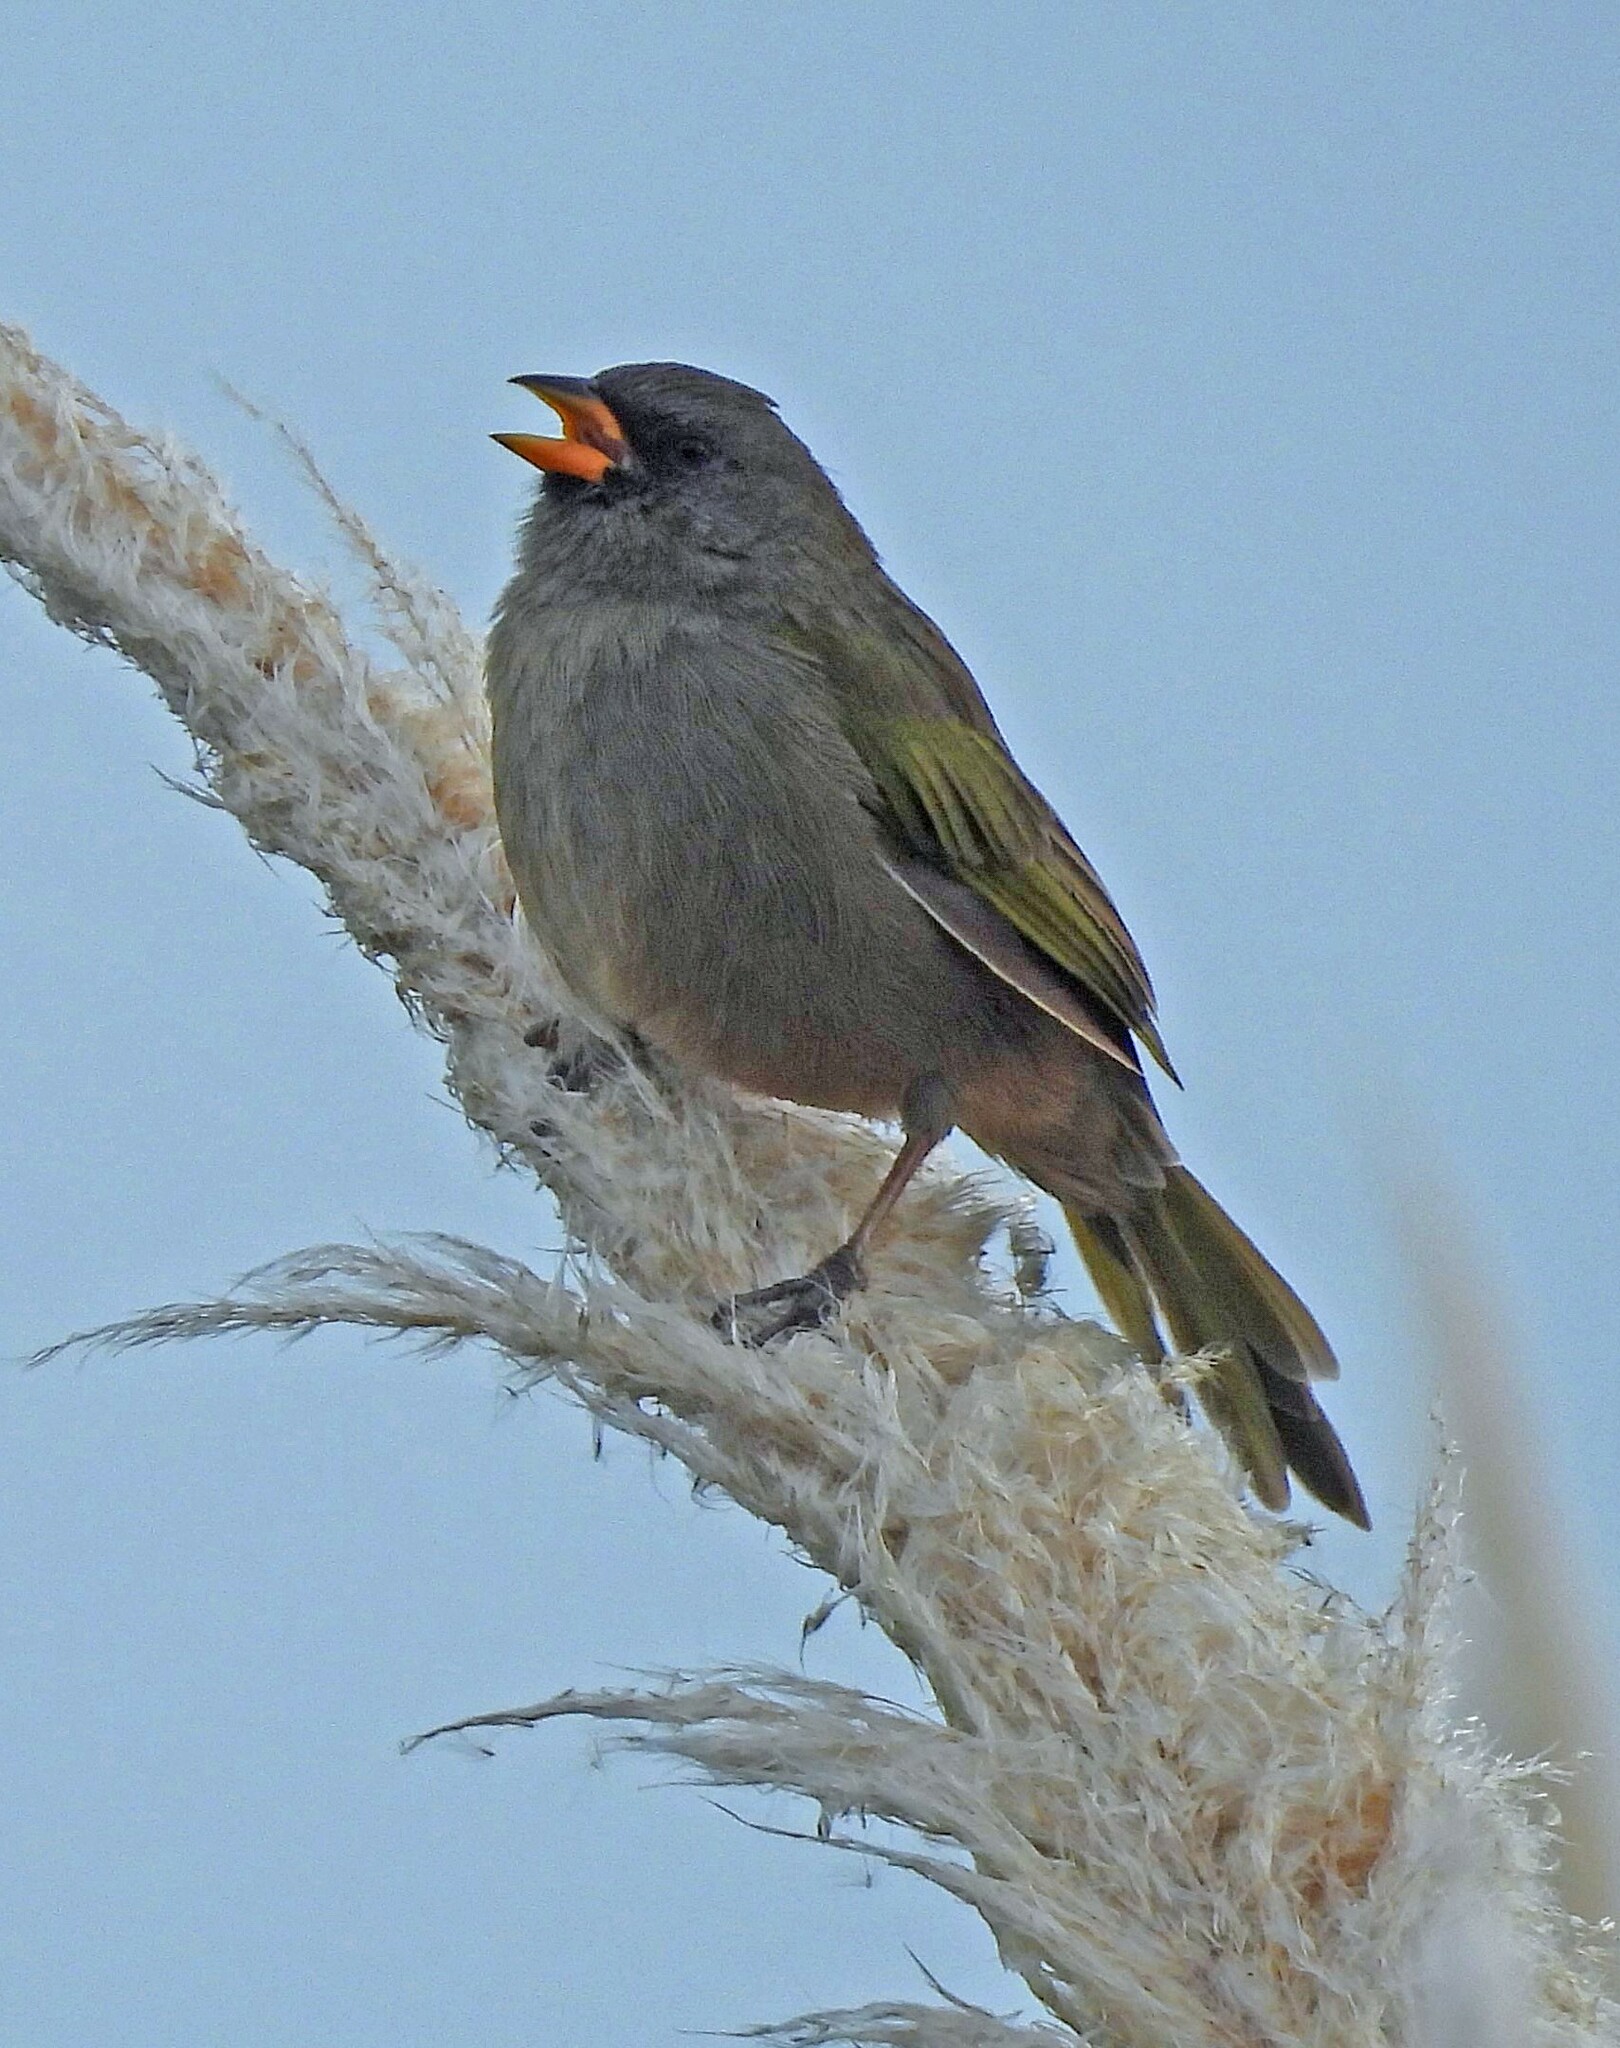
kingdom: Animalia
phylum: Chordata
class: Aves
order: Passeriformes
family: Thraupidae
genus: Embernagra
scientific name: Embernagra platensis
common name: Pampa finch
